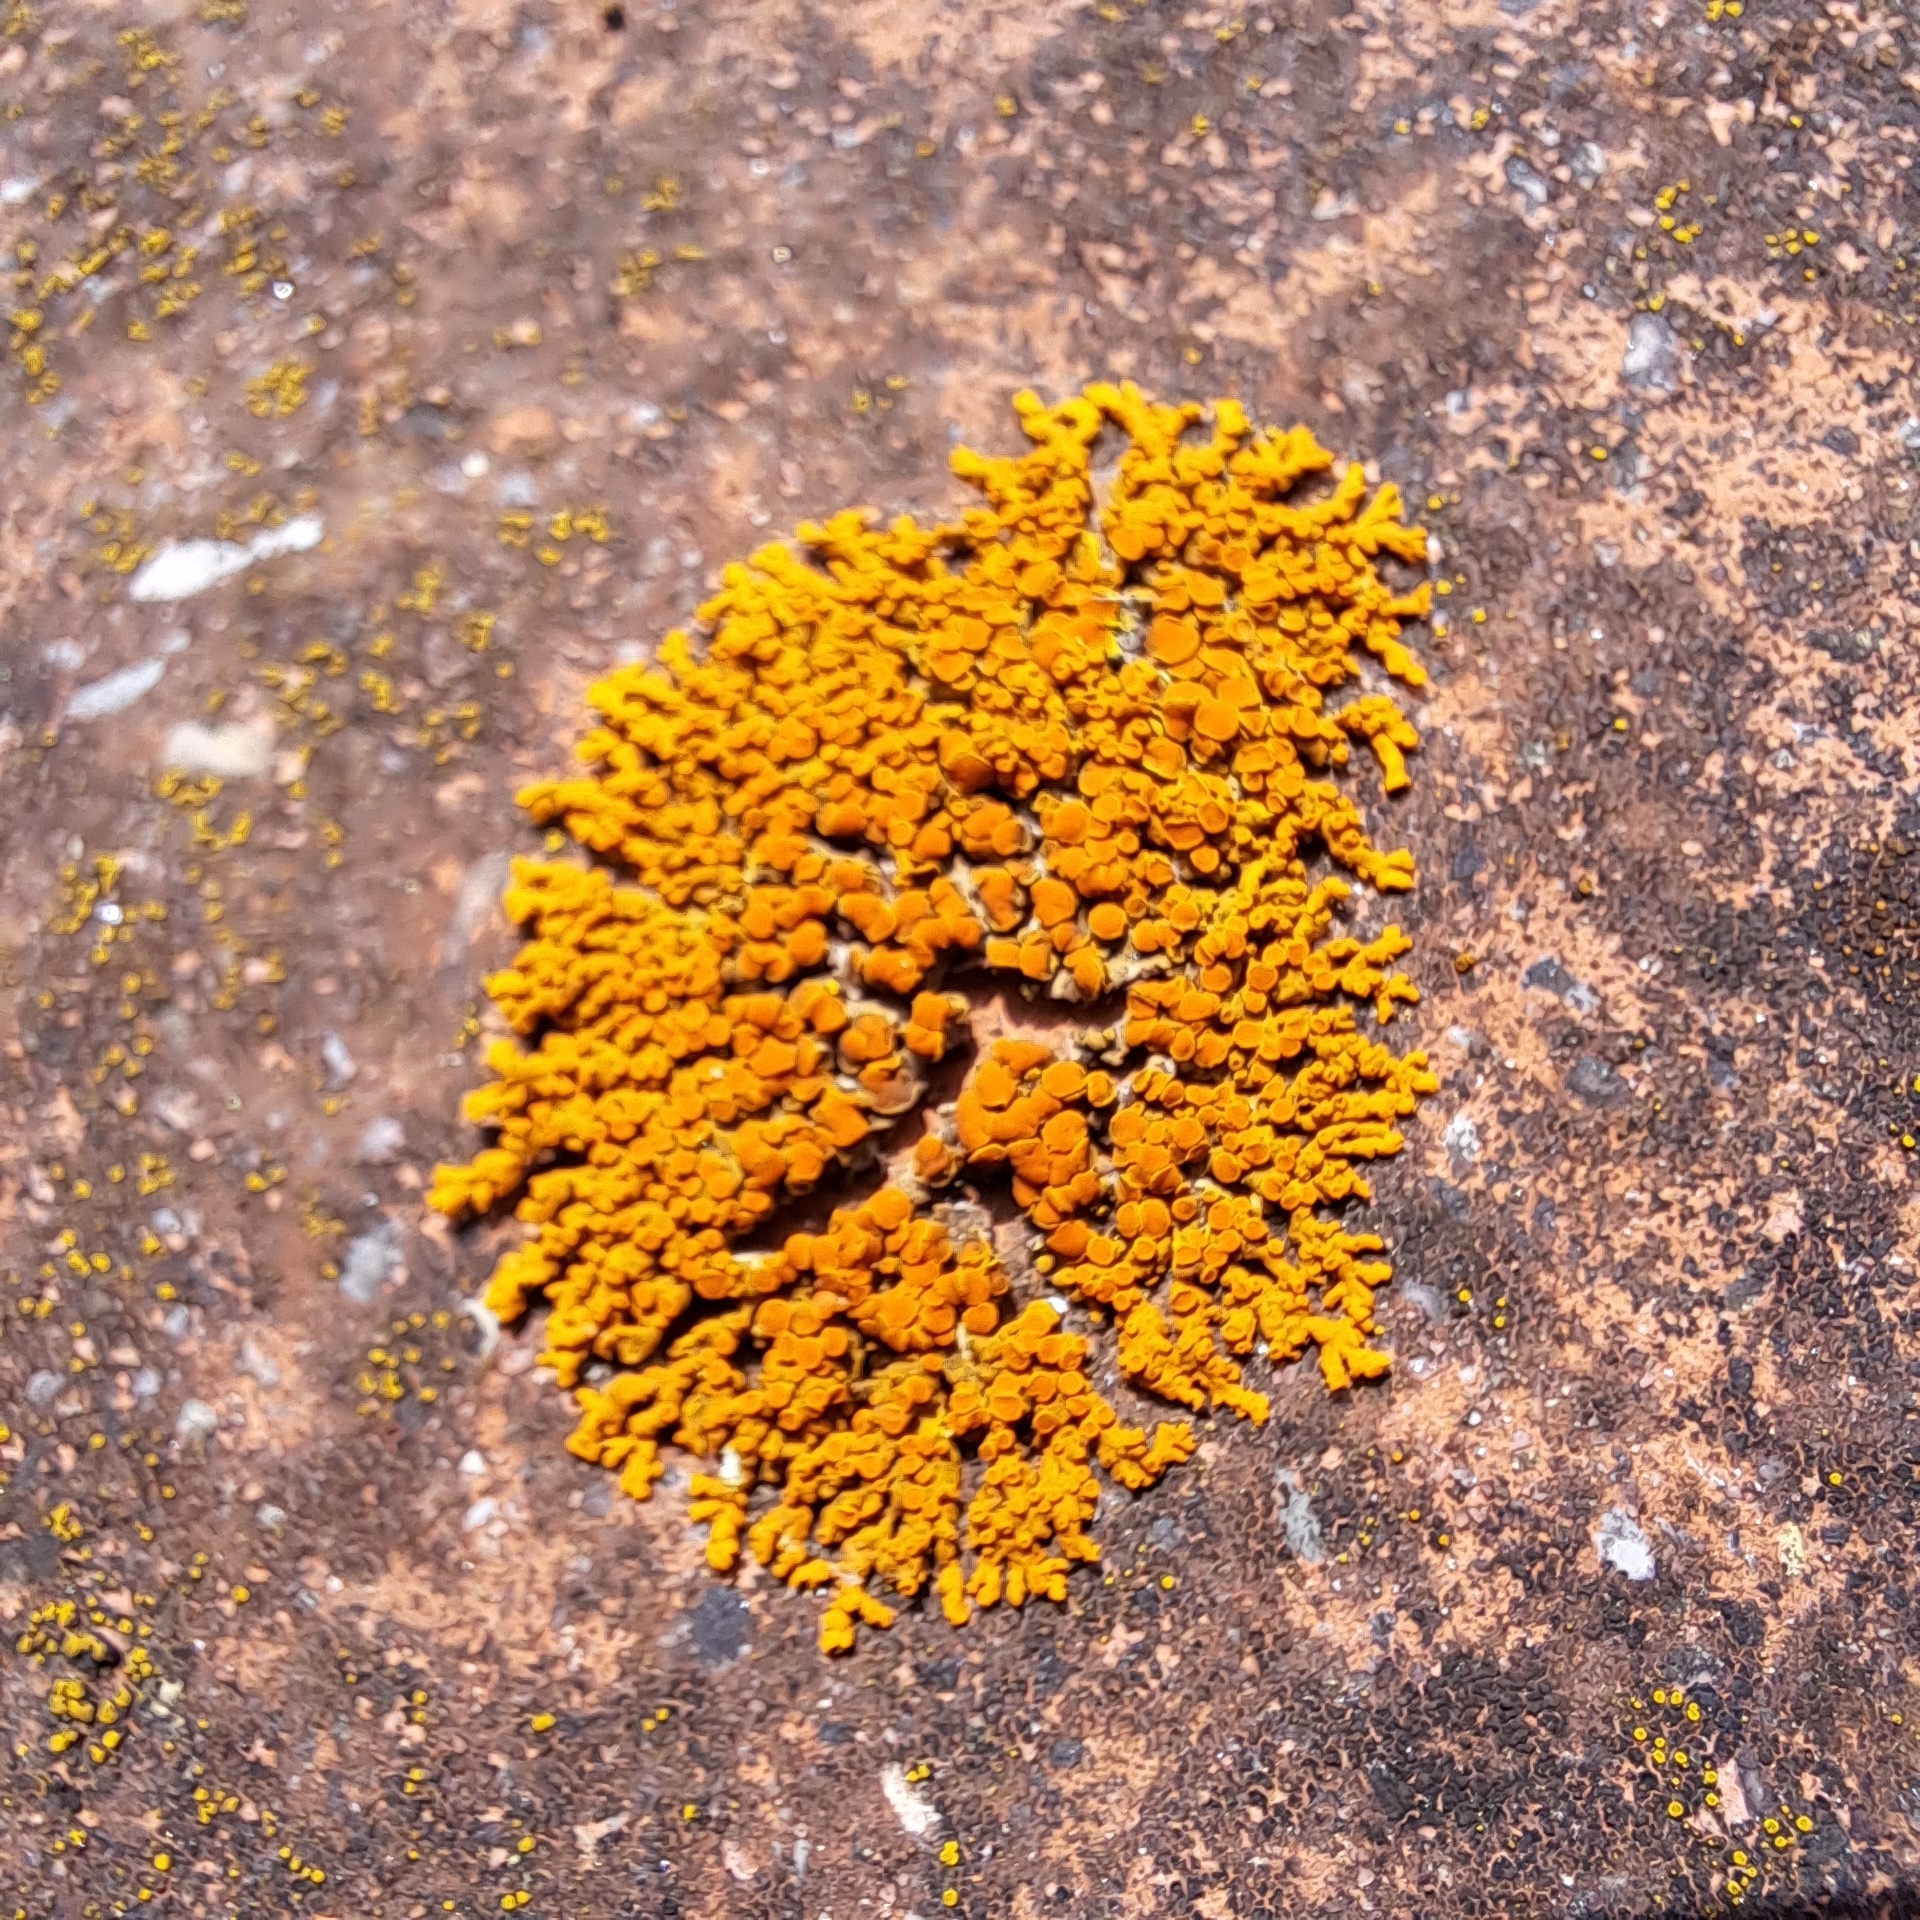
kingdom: Fungi
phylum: Ascomycota
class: Lecanoromycetes
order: Teloschistales
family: Teloschistaceae
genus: Xanthoria
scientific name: Xanthoria elegans
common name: Elegant sunburst lichen
